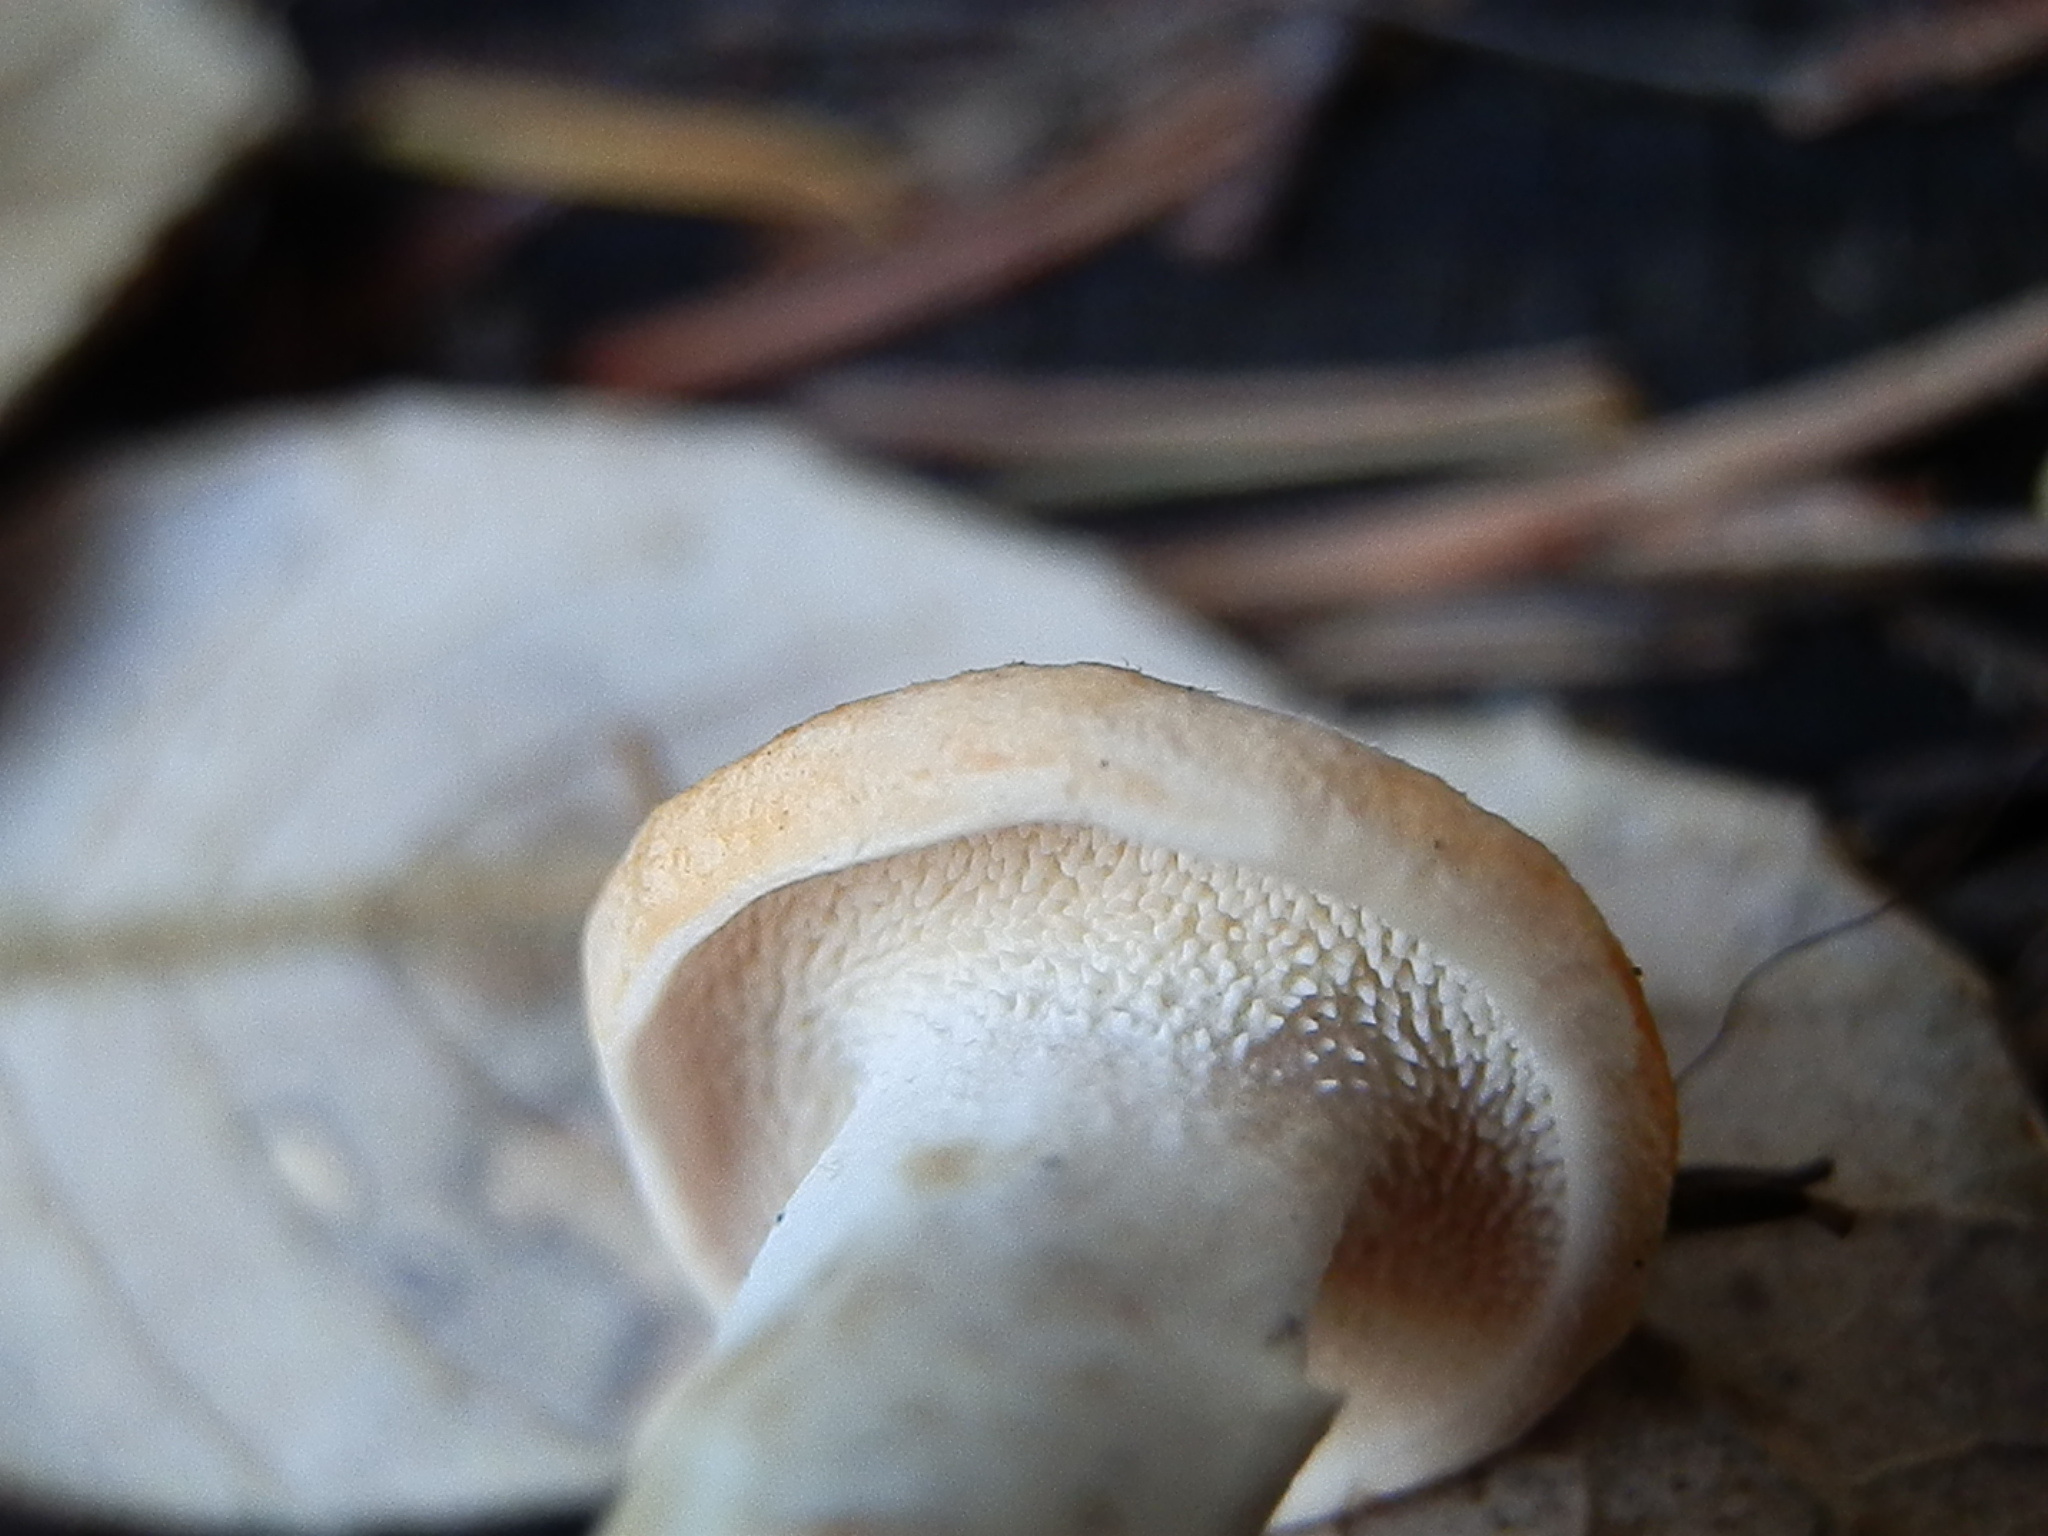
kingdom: Fungi
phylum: Basidiomycota
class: Agaricomycetes
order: Cantharellales
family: Hydnaceae
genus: Hydnum
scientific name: Hydnum oregonense
